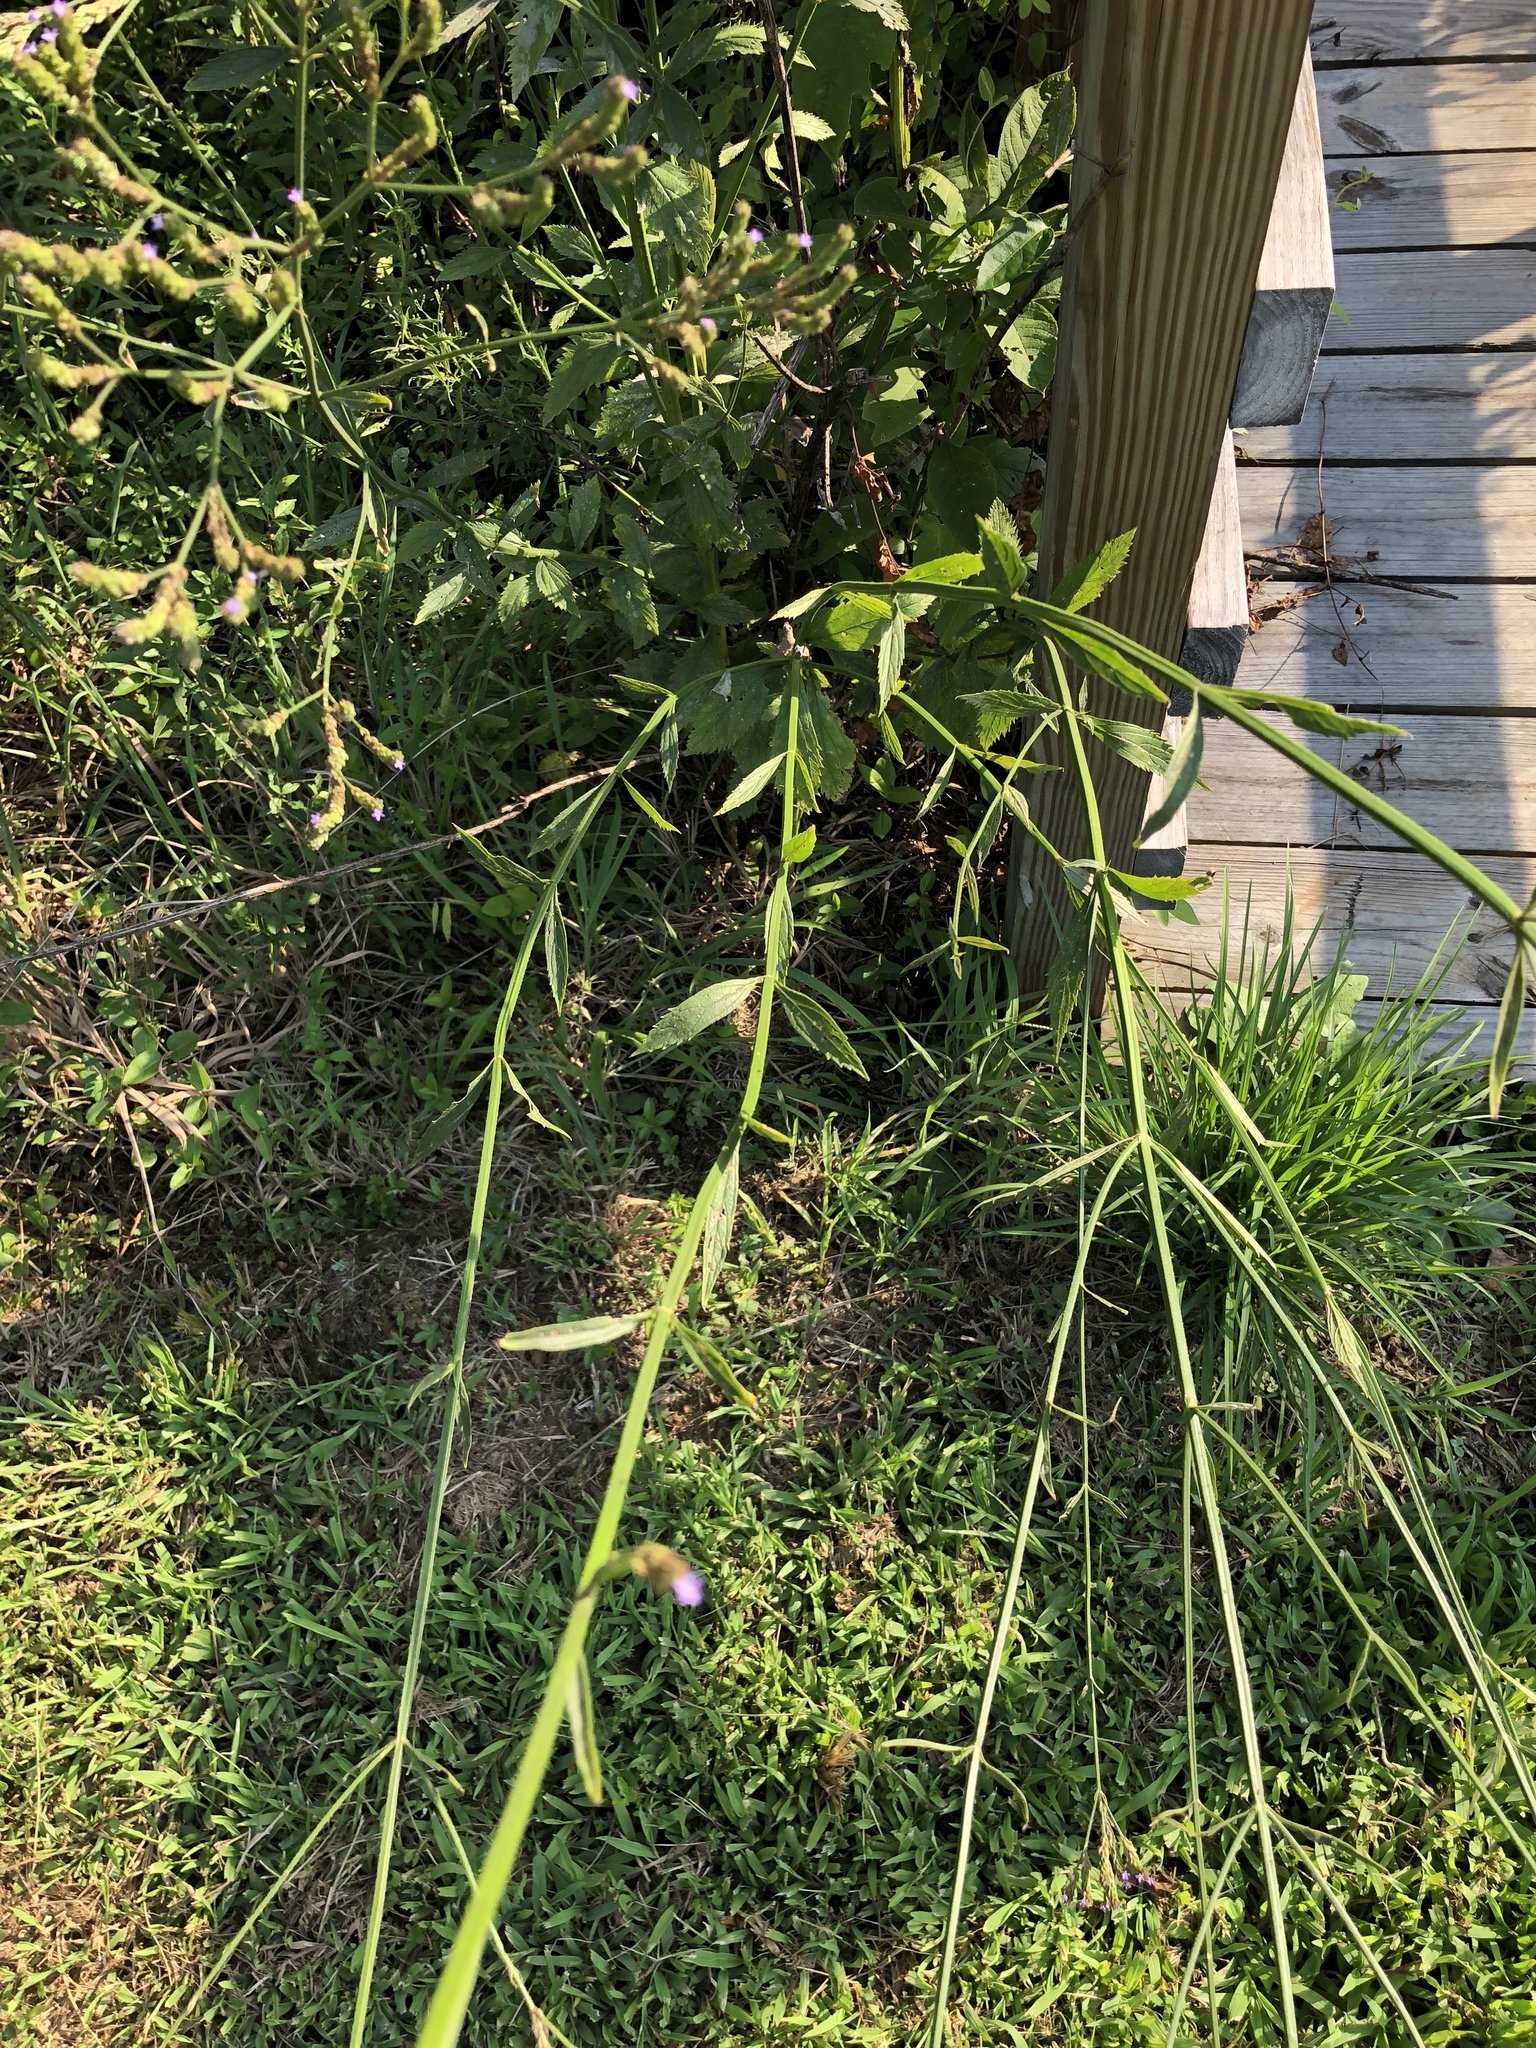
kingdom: Plantae
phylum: Tracheophyta
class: Magnoliopsida
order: Lamiales
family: Verbenaceae
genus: Verbena
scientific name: Verbena brasiliensis
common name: Brazilian vervain
